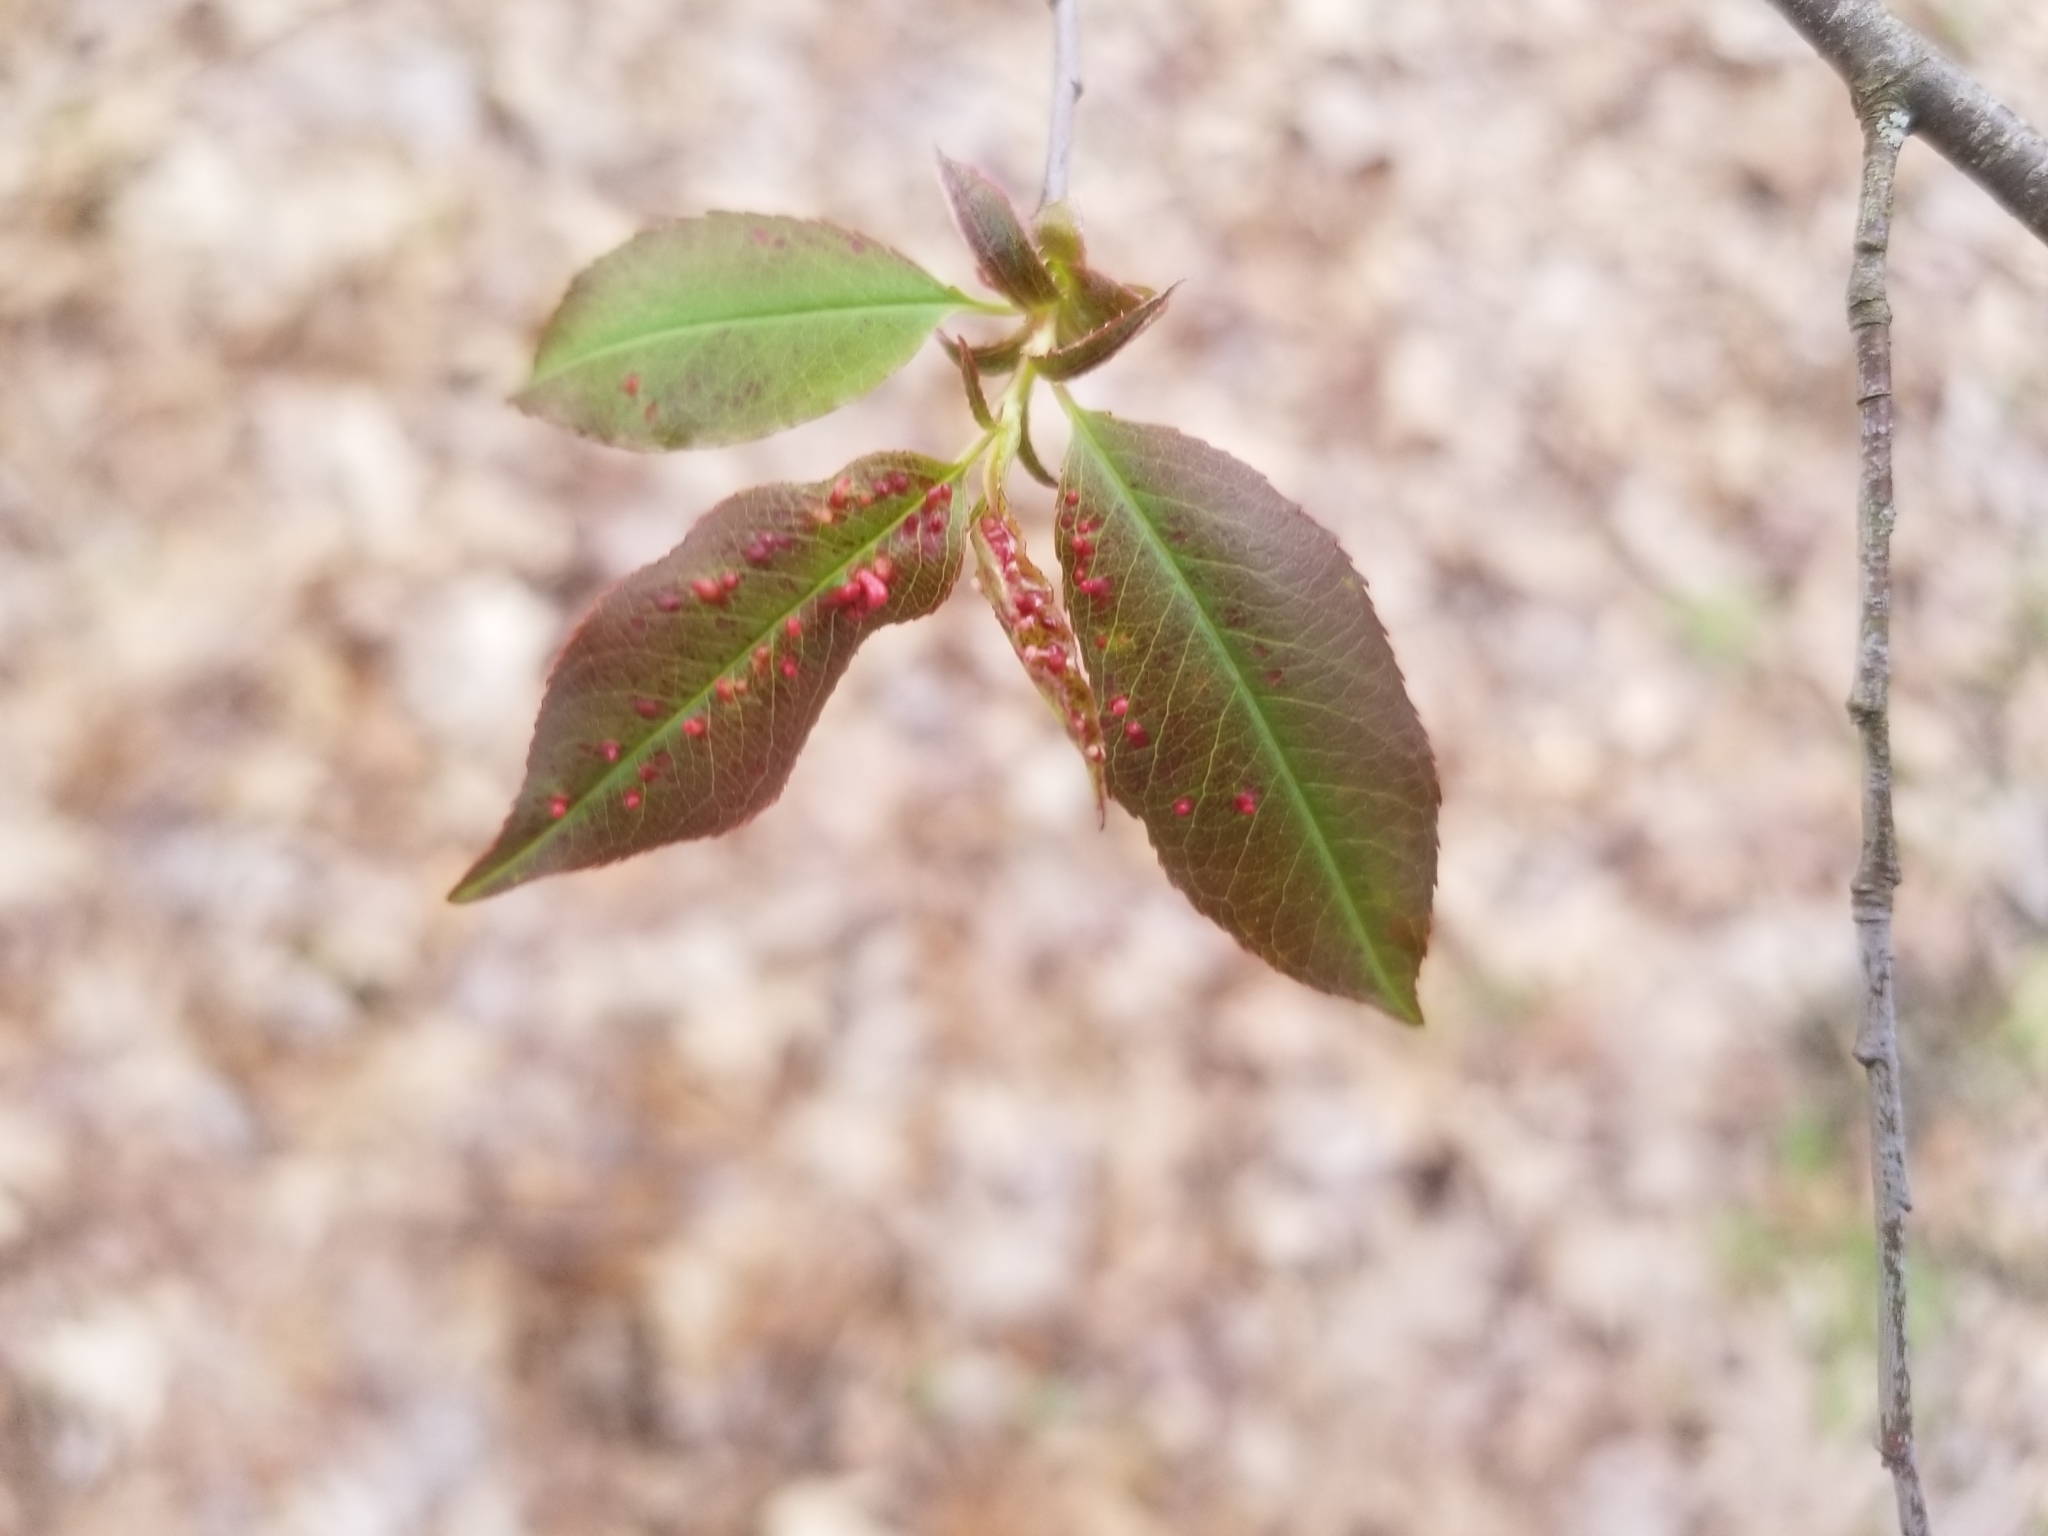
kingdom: Animalia
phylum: Arthropoda
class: Arachnida
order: Trombidiformes
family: Eriophyidae
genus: Eriophyes
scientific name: Eriophyes
